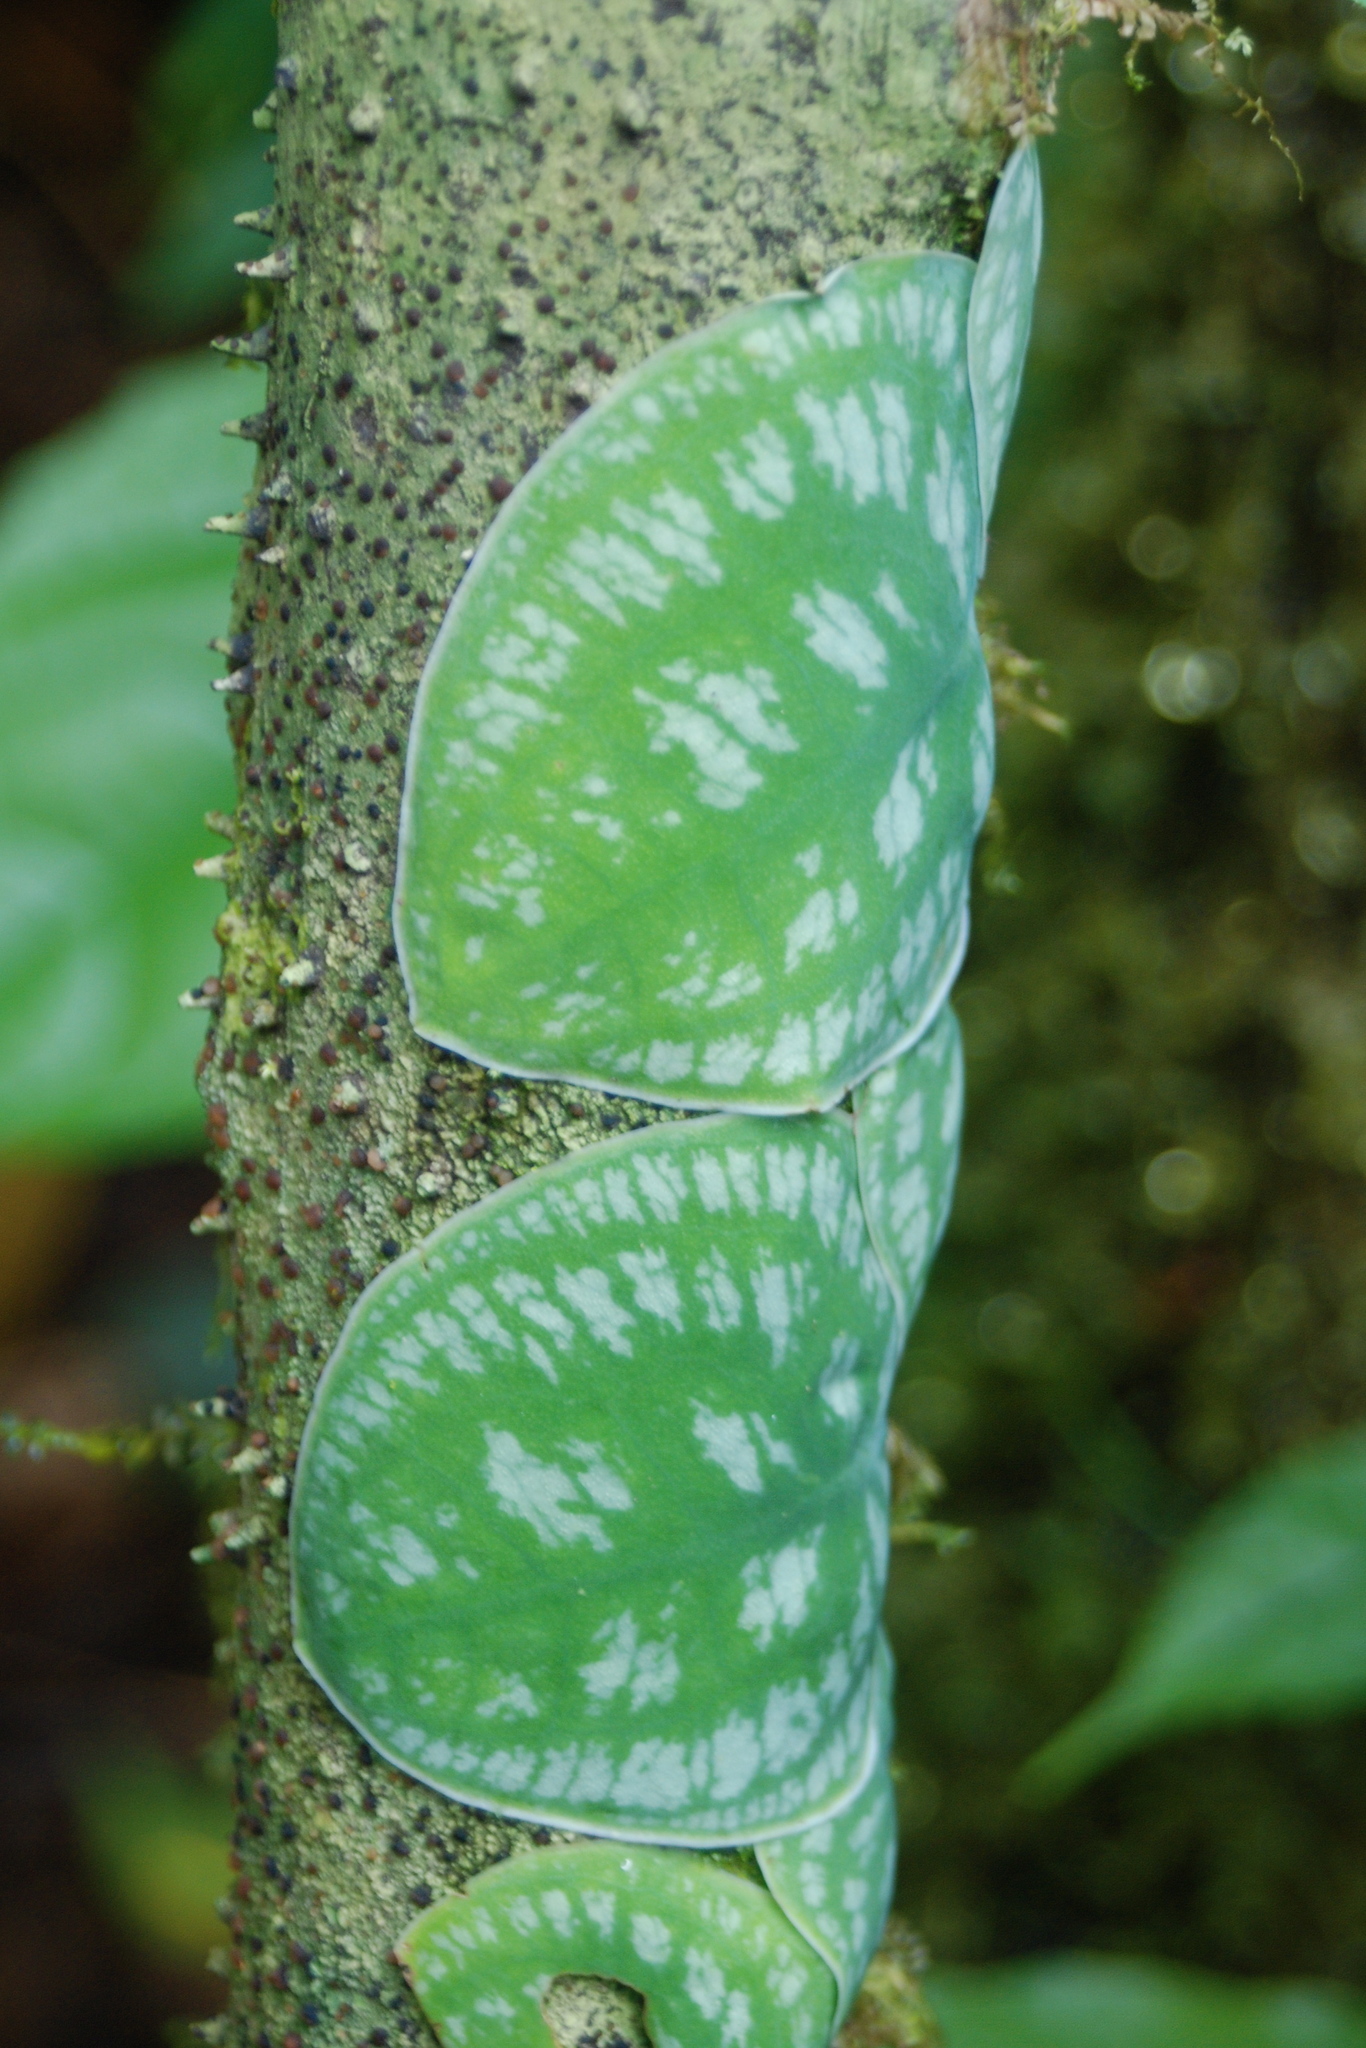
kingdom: Plantae
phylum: Tracheophyta
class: Liliopsida
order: Alismatales
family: Araceae
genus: Monstera
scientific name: Monstera tuberculata
